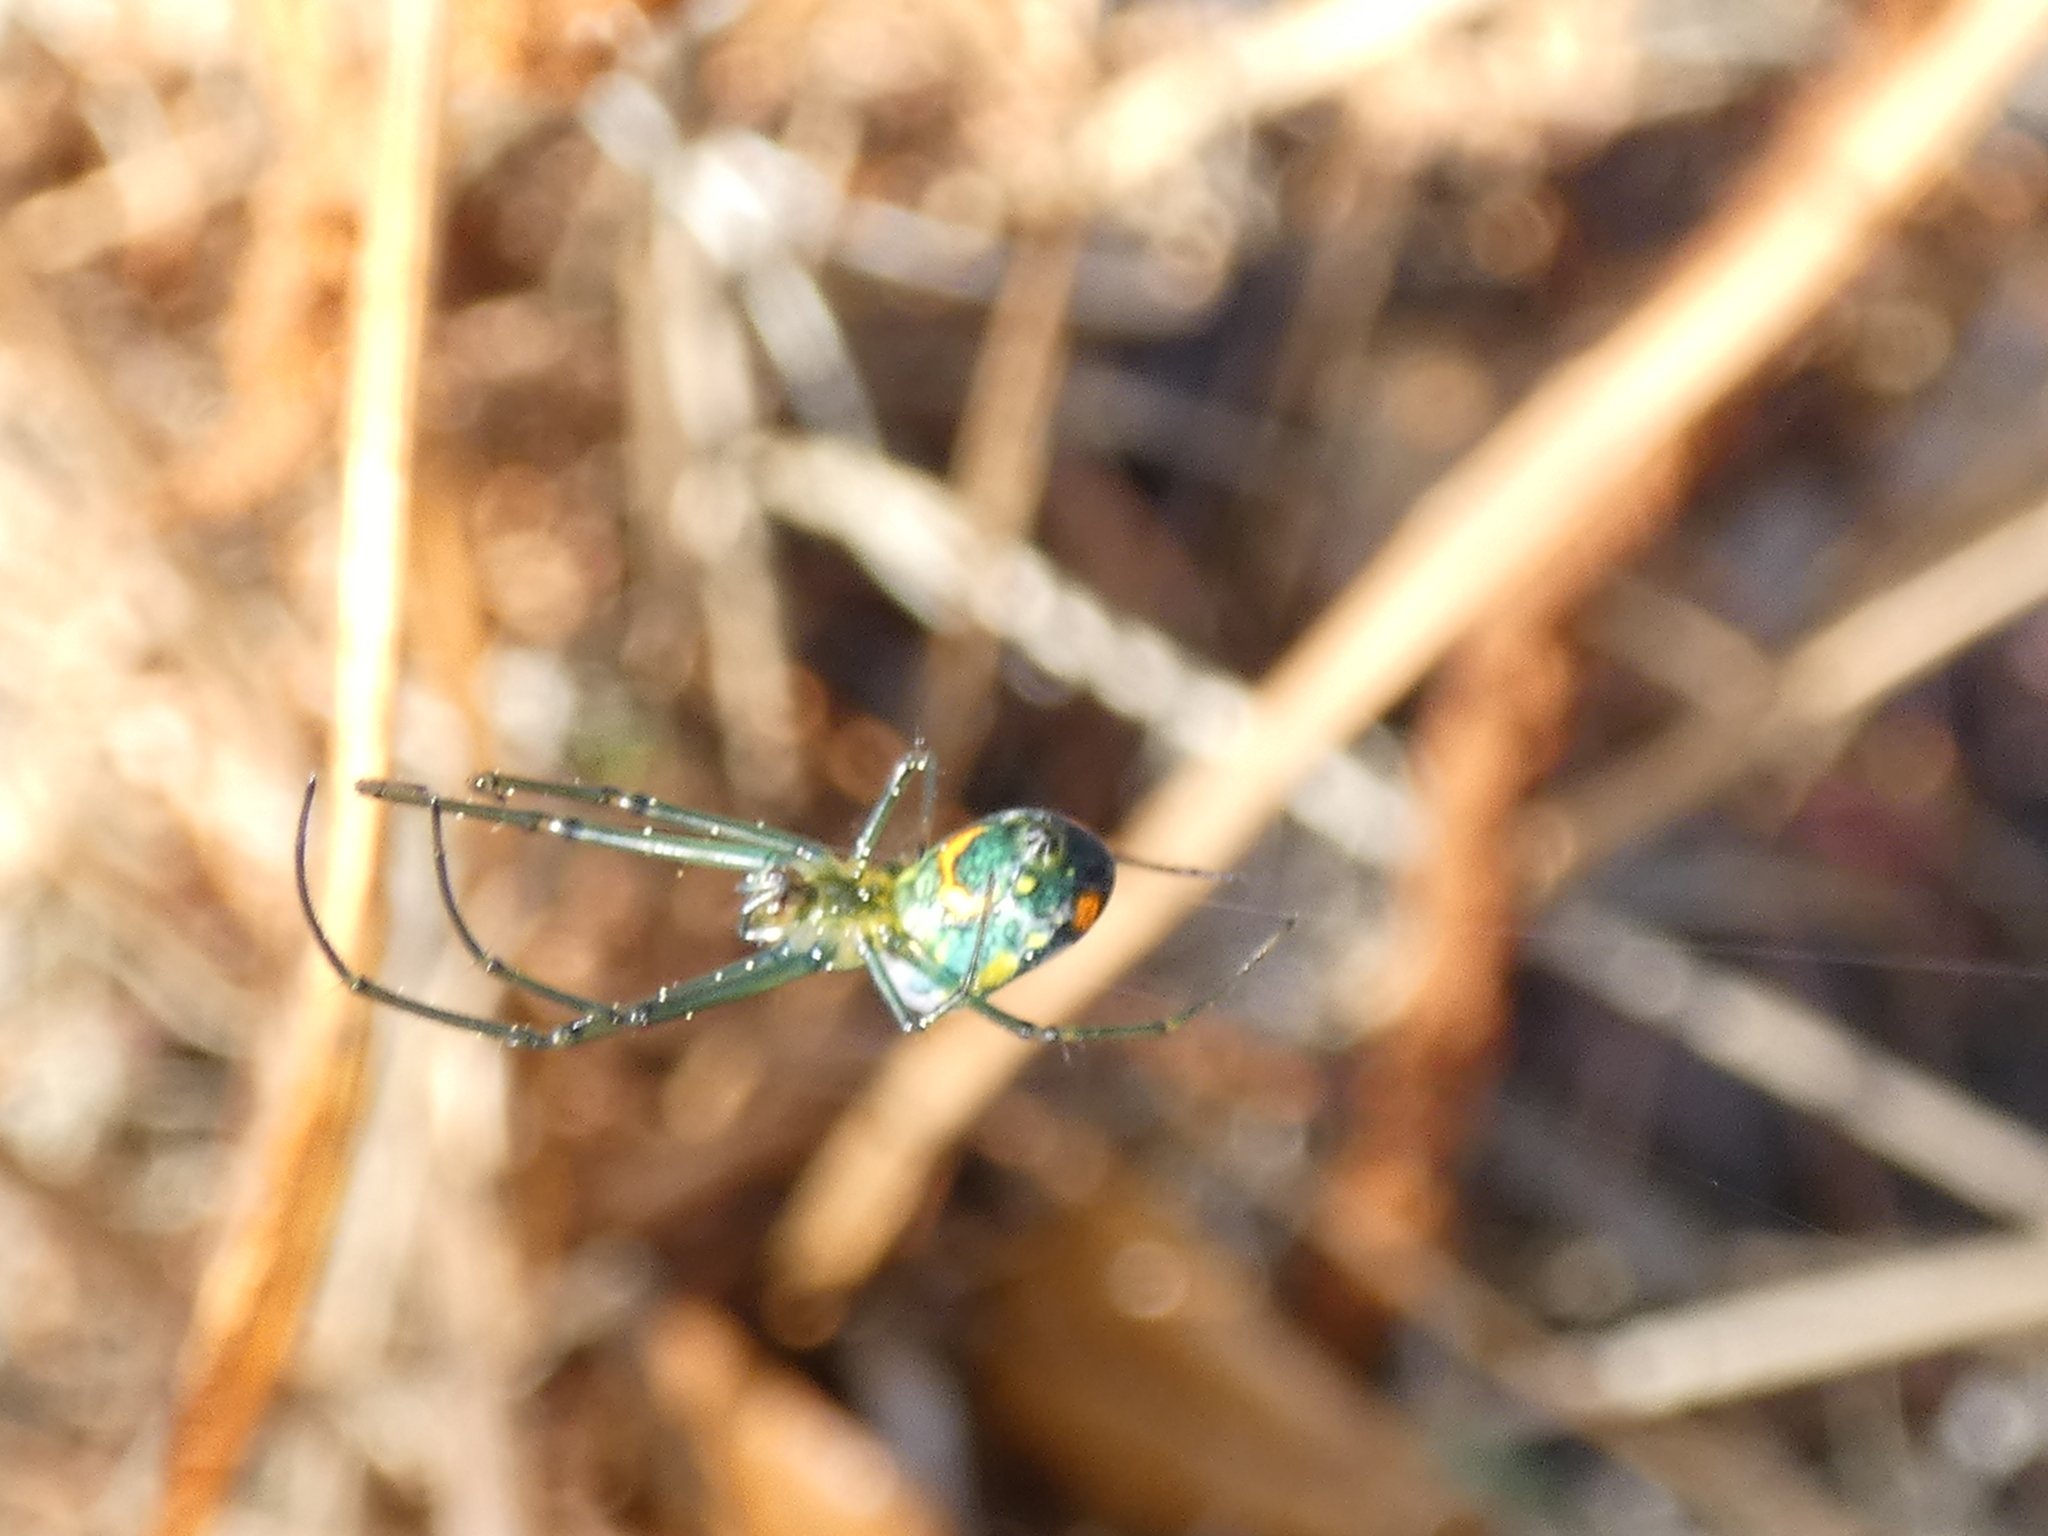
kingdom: Animalia
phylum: Arthropoda
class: Arachnida
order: Araneae
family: Tetragnathidae
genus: Leucauge
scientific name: Leucauge argyrobapta
